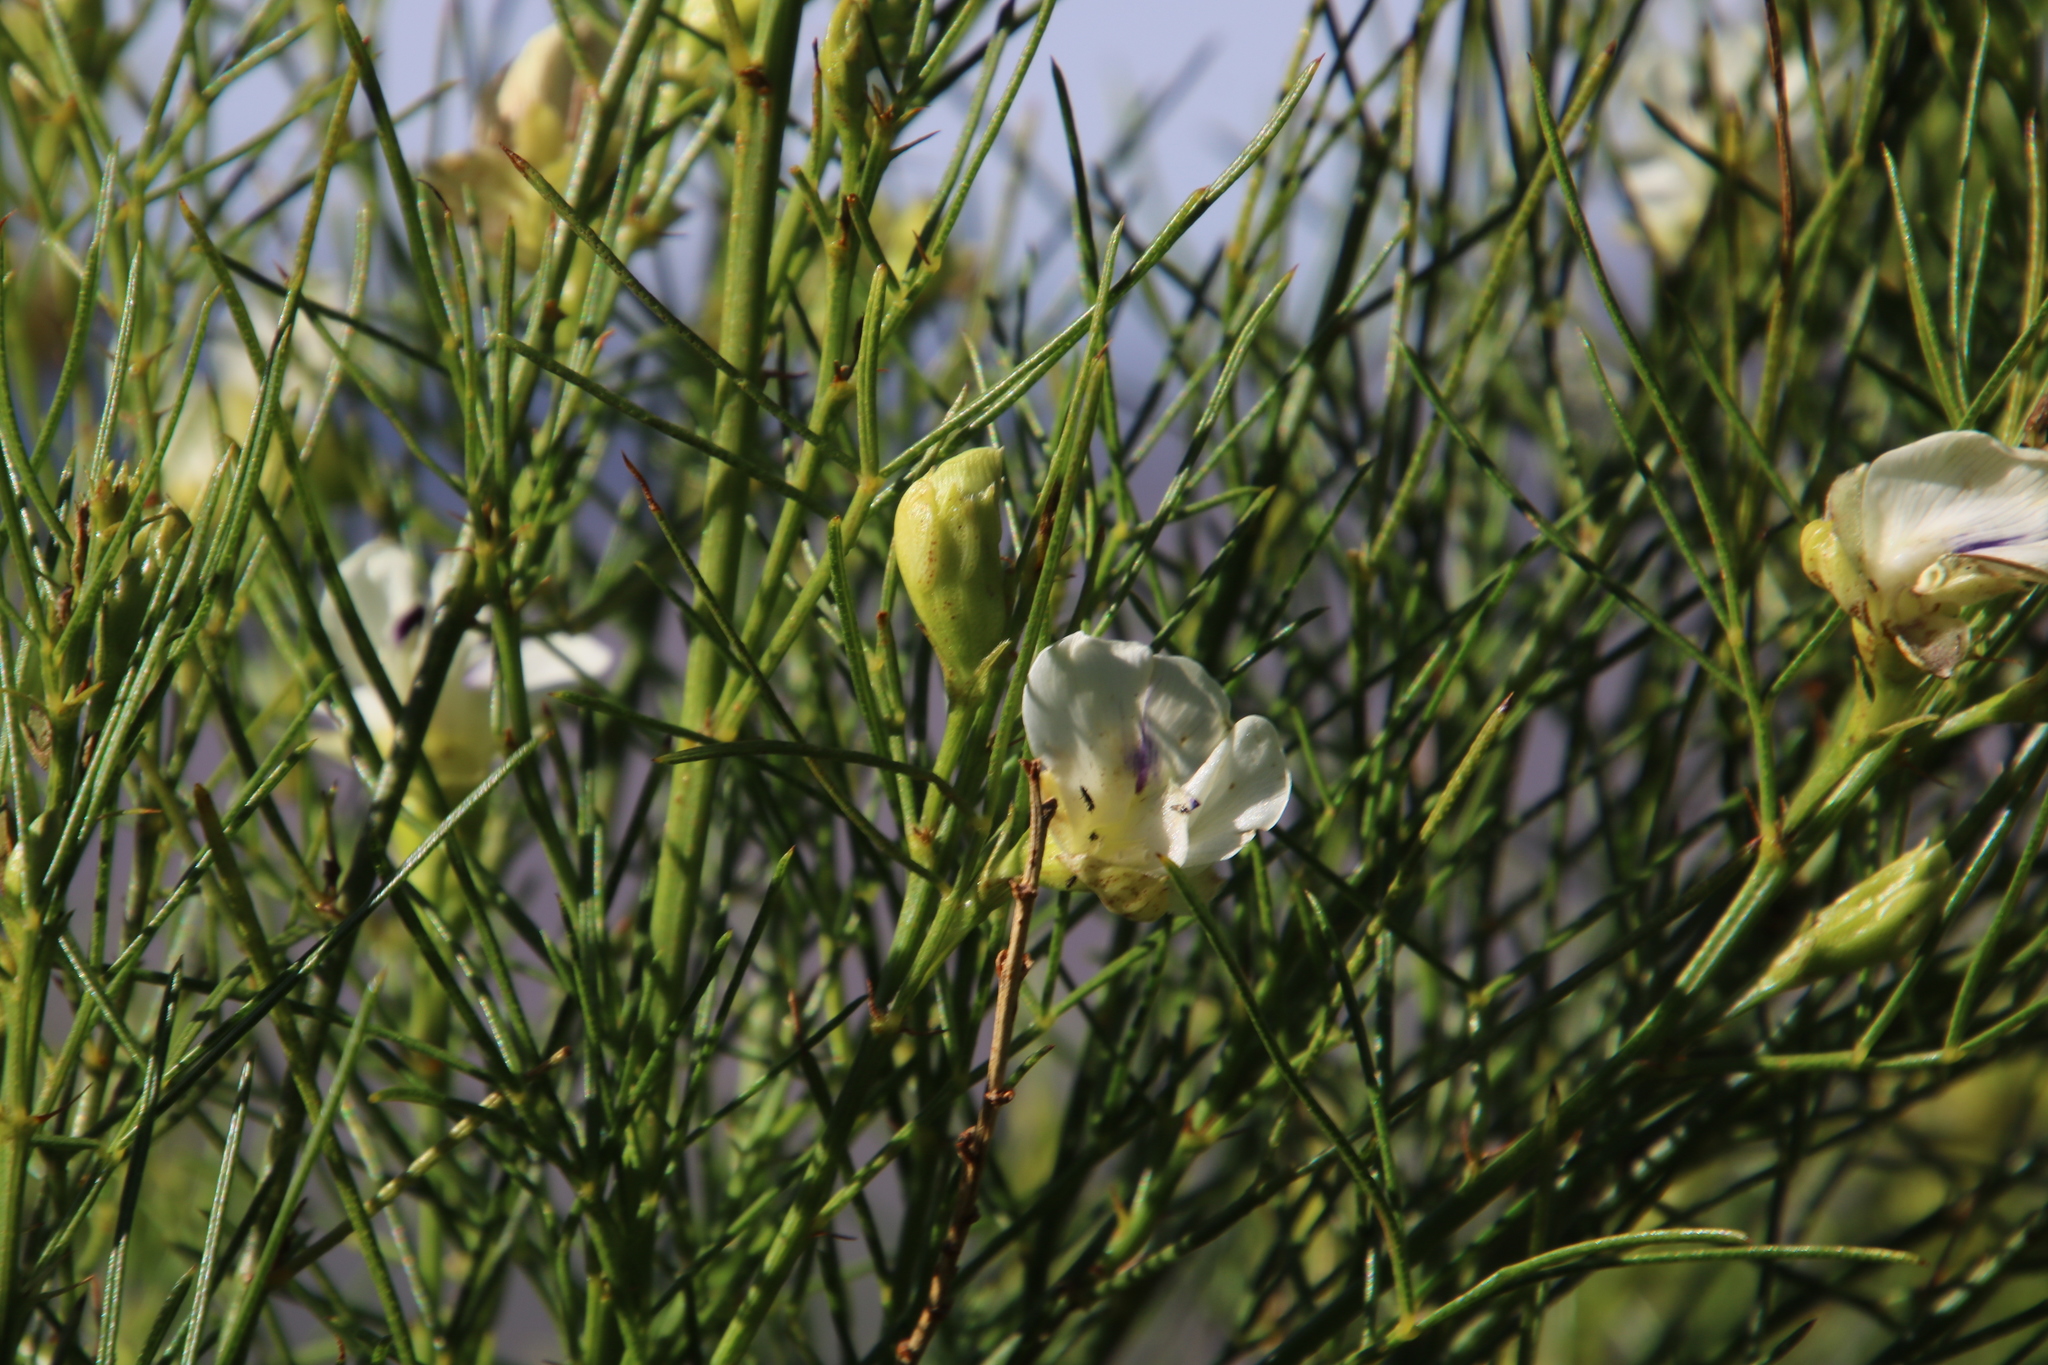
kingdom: Plantae
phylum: Tracheophyta
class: Magnoliopsida
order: Fabales
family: Fabaceae
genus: Psoralea
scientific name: Psoralea
